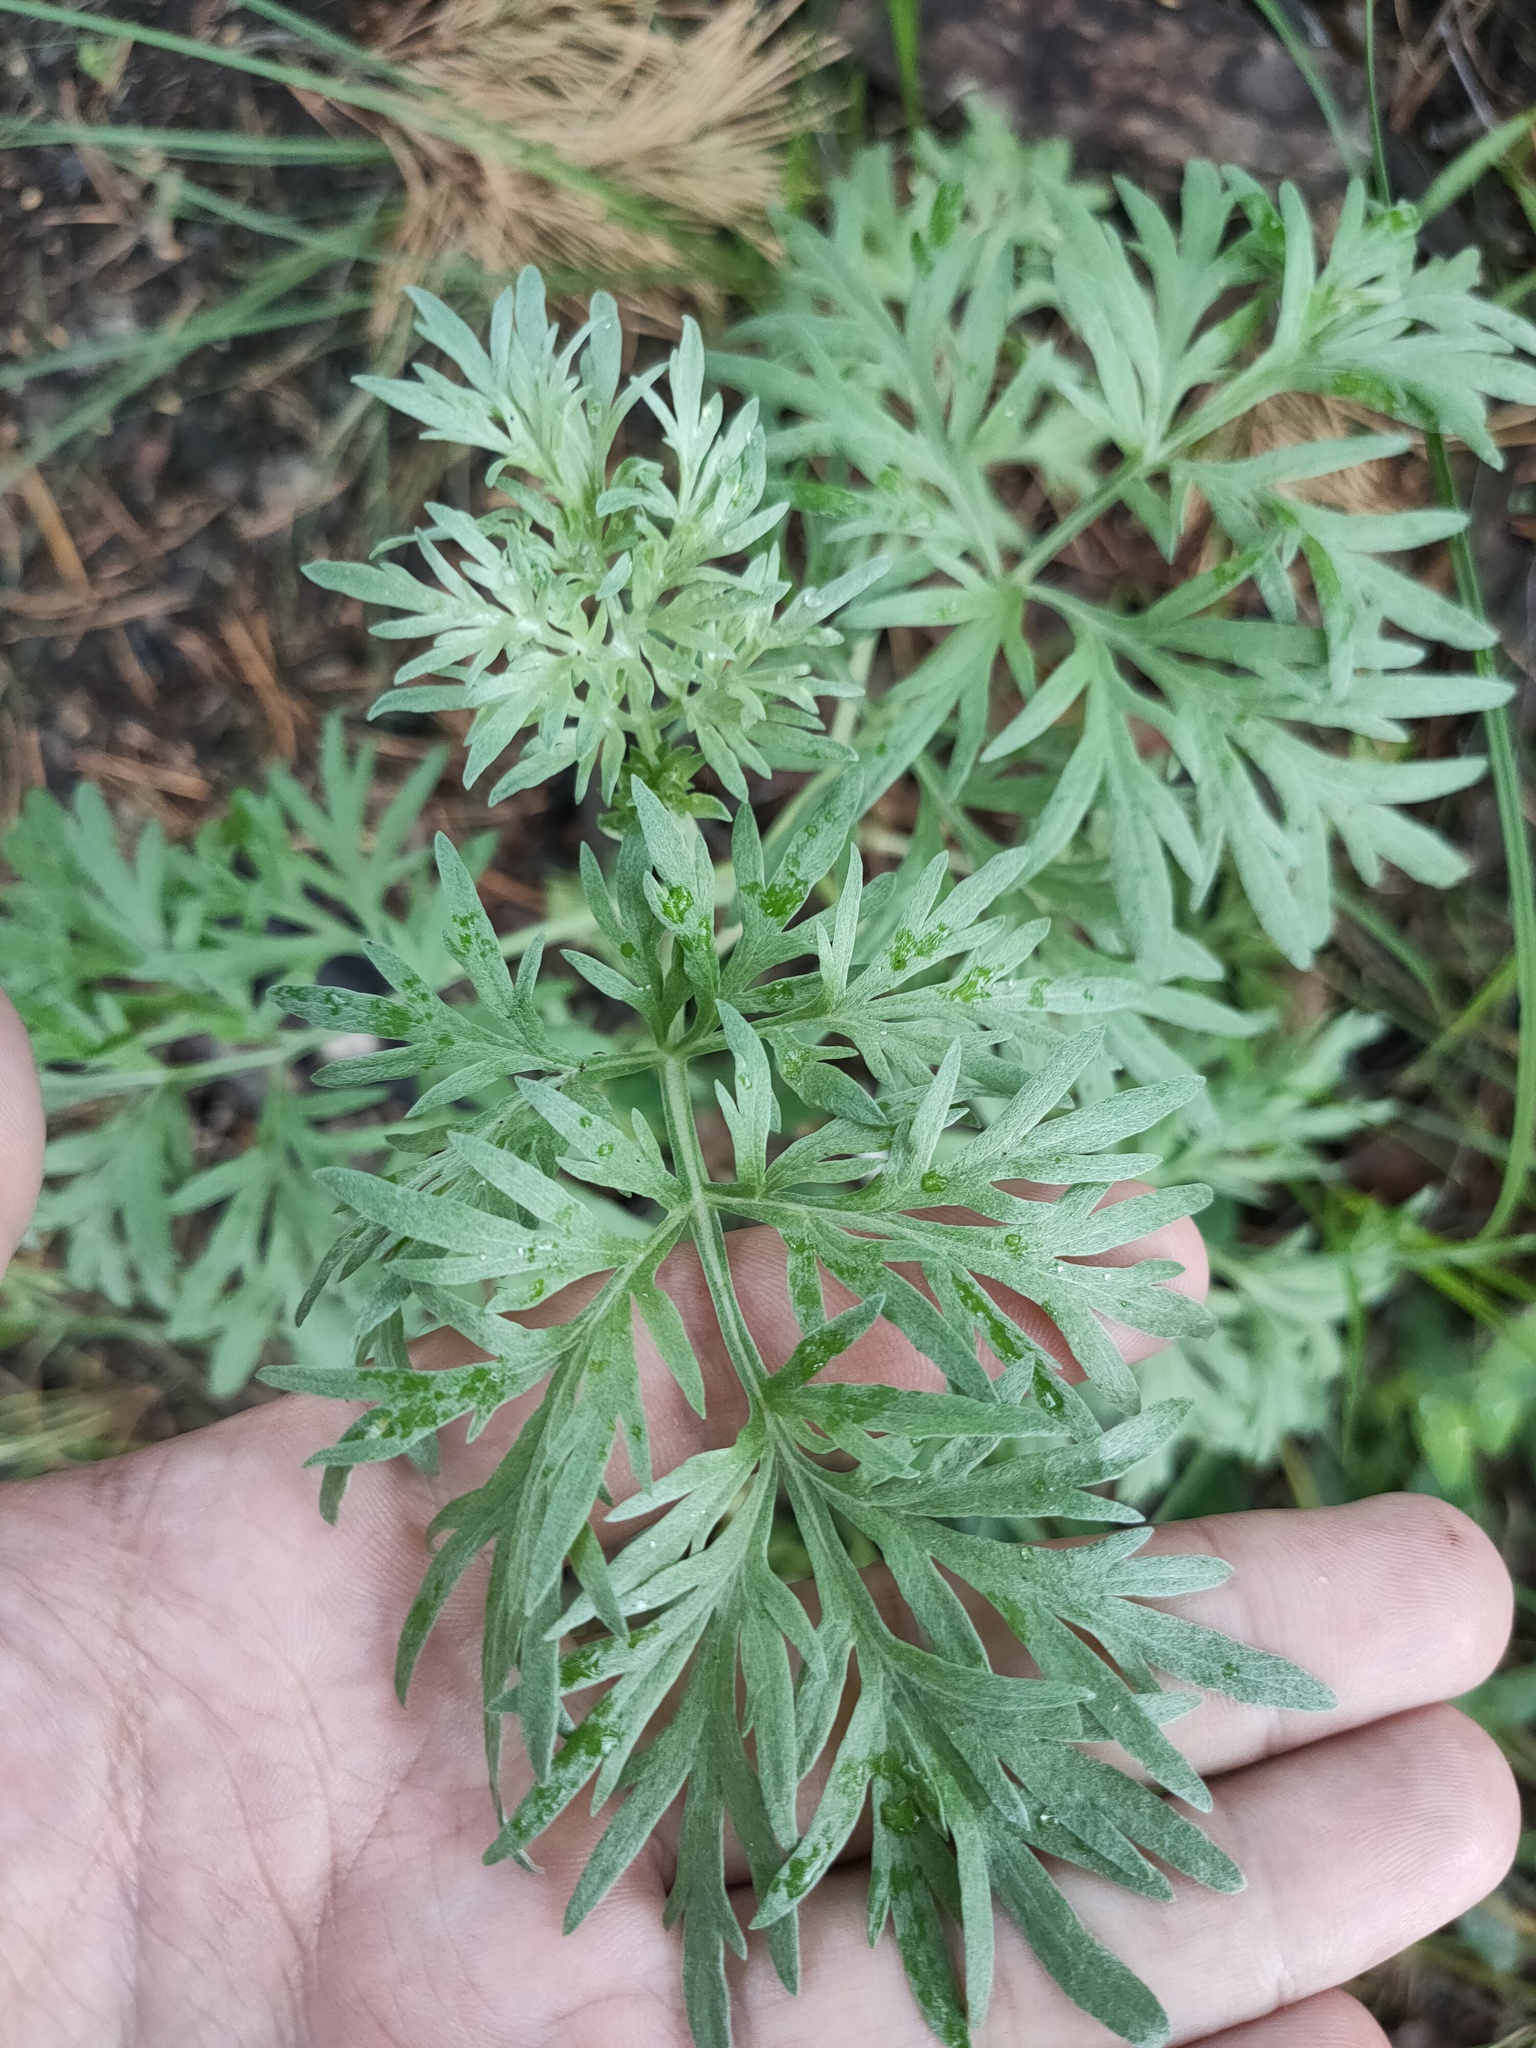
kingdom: Plantae
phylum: Tracheophyta
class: Magnoliopsida
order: Asterales
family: Asteraceae
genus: Artemisia
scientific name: Artemisia absinthium
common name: Wormwood
